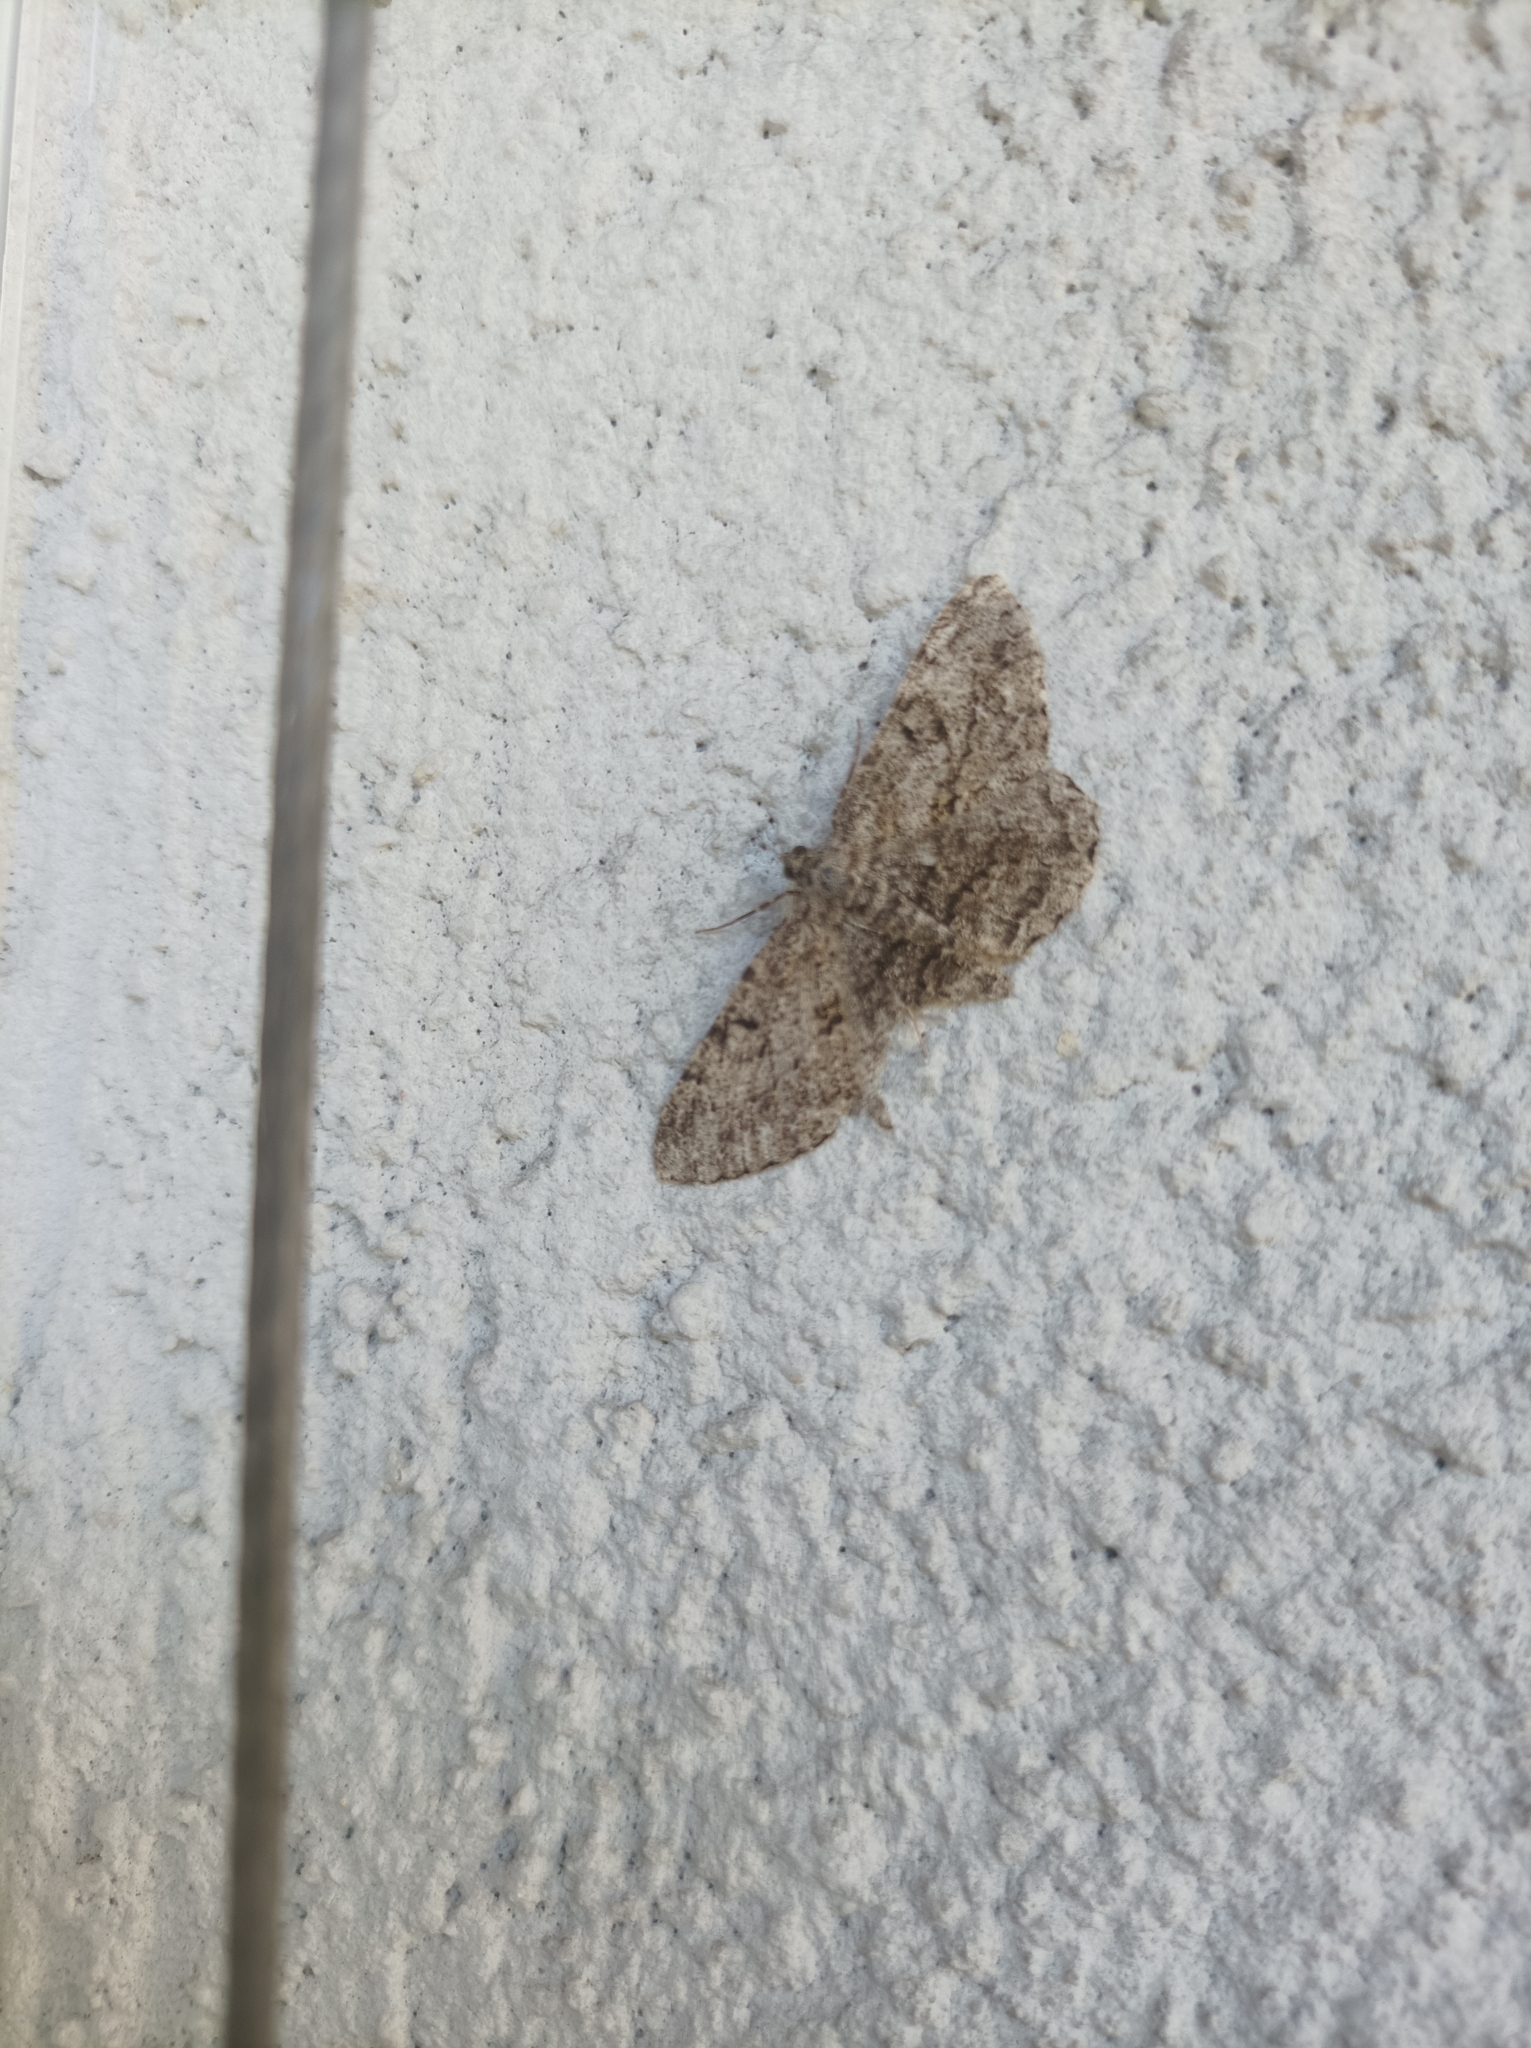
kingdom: Animalia
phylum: Arthropoda
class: Insecta
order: Lepidoptera
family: Geometridae
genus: Peribatodes
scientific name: Peribatodes rhomboidaria
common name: Willow beauty
